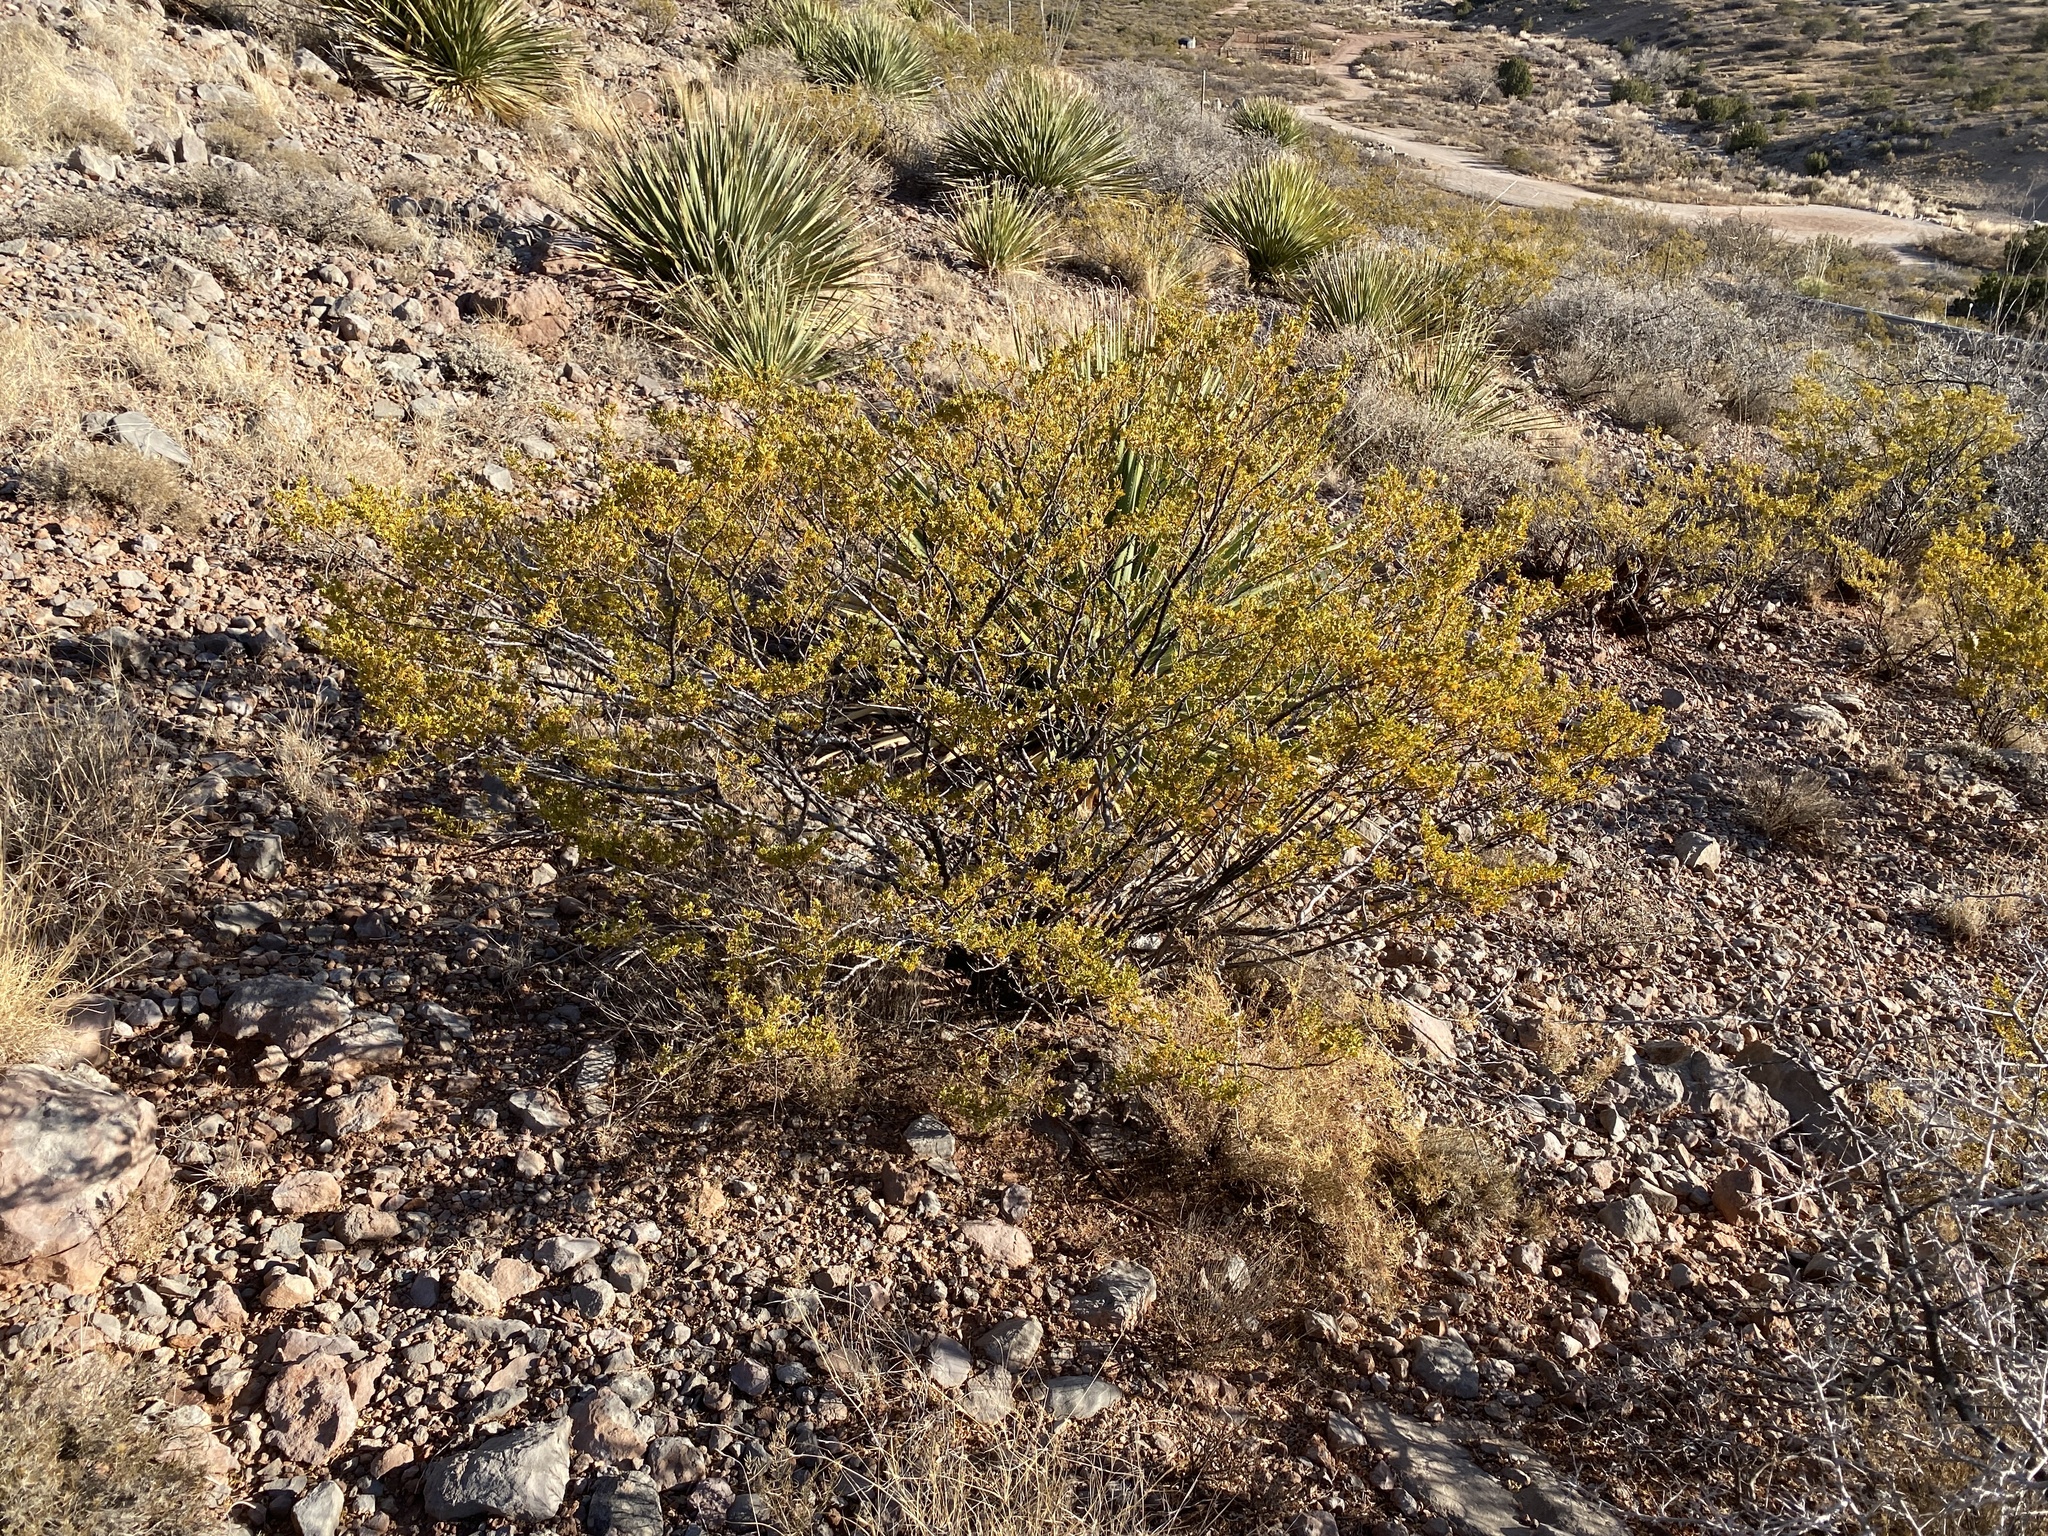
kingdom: Plantae
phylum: Tracheophyta
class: Magnoliopsida
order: Zygophyllales
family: Zygophyllaceae
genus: Larrea
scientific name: Larrea tridentata
